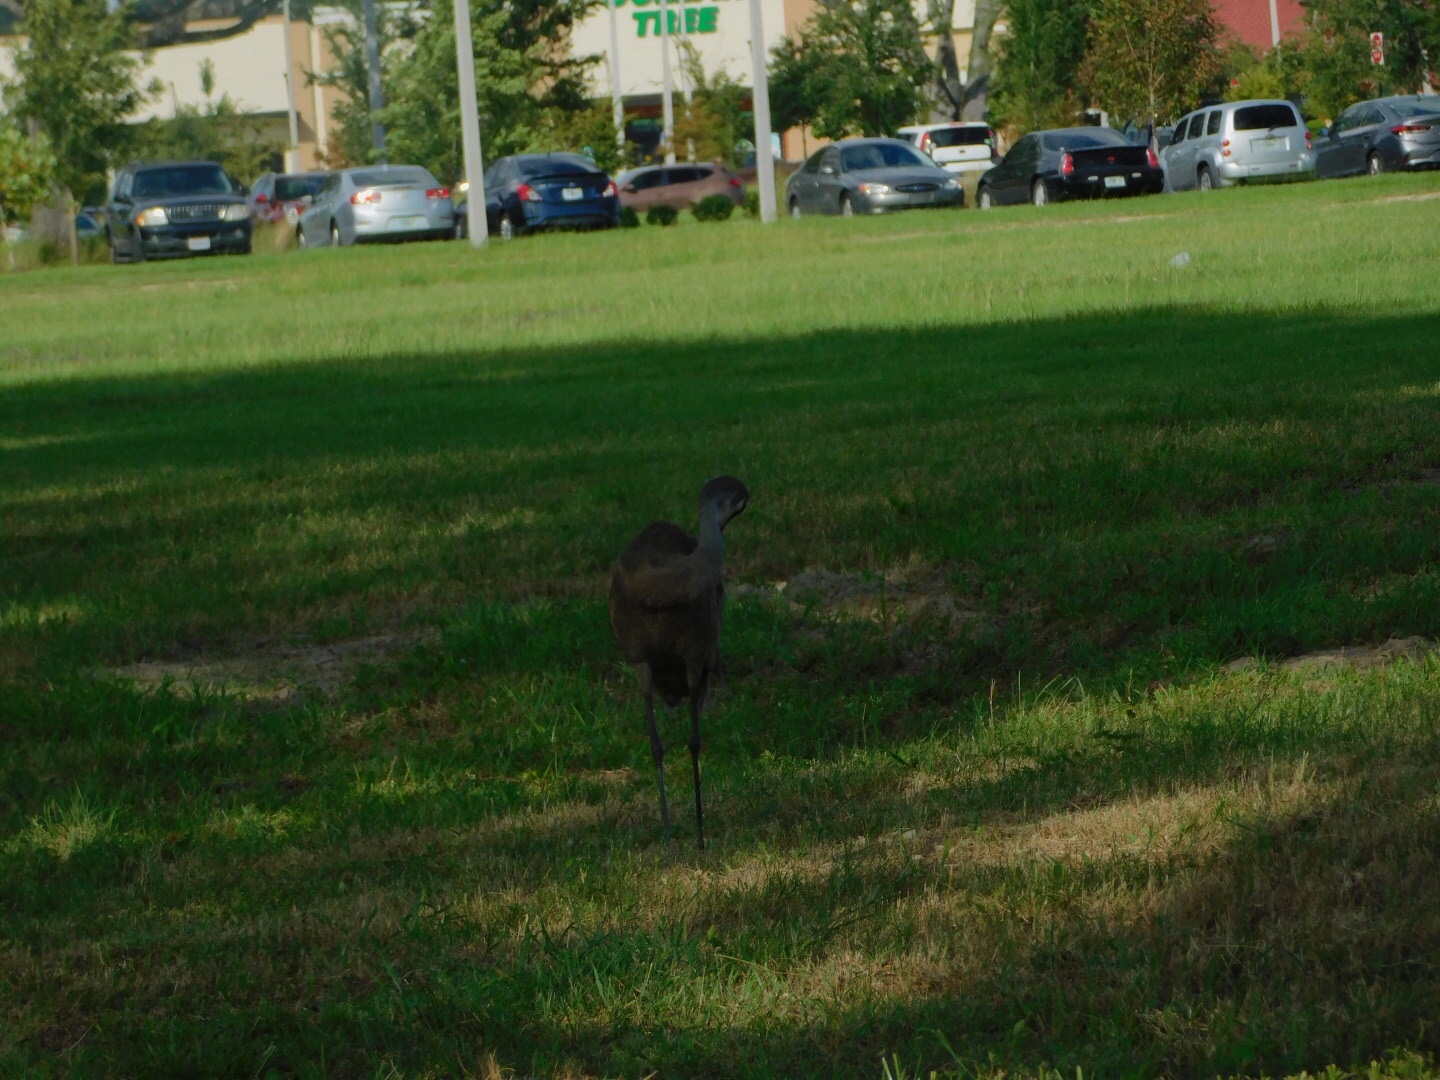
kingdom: Animalia
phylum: Chordata
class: Aves
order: Gruiformes
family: Gruidae
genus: Grus
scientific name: Grus canadensis
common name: Sandhill crane
